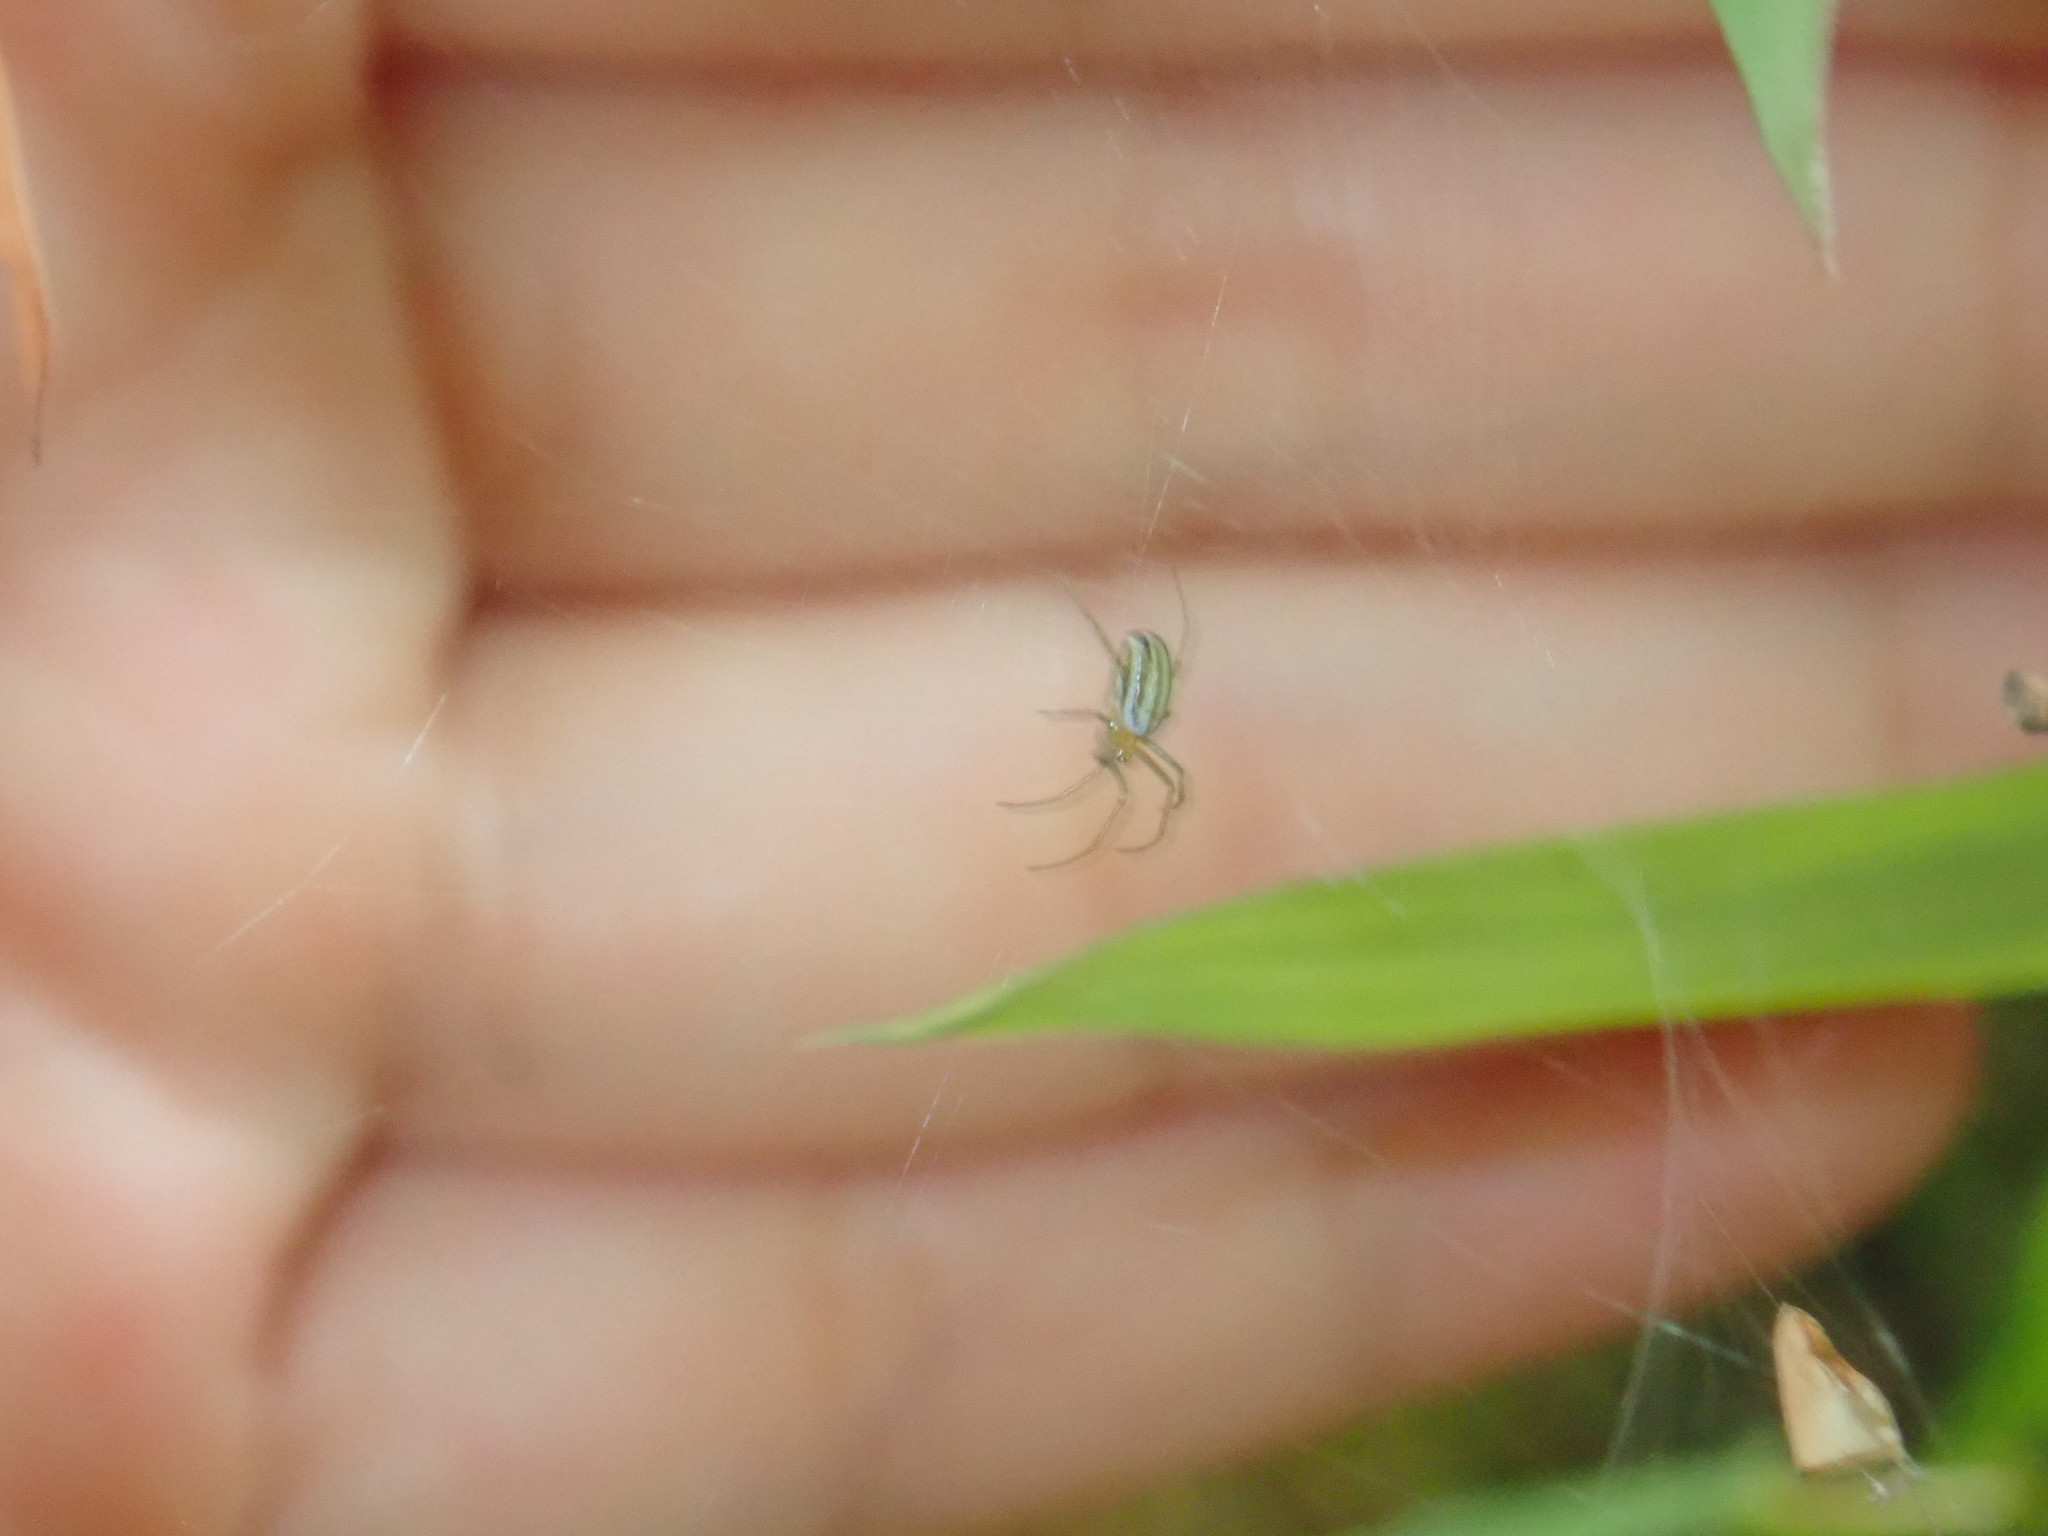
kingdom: Animalia
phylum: Arthropoda
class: Arachnida
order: Araneae
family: Araneidae
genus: Nephila
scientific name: Nephila pilipes
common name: Giant golden orb weaver
